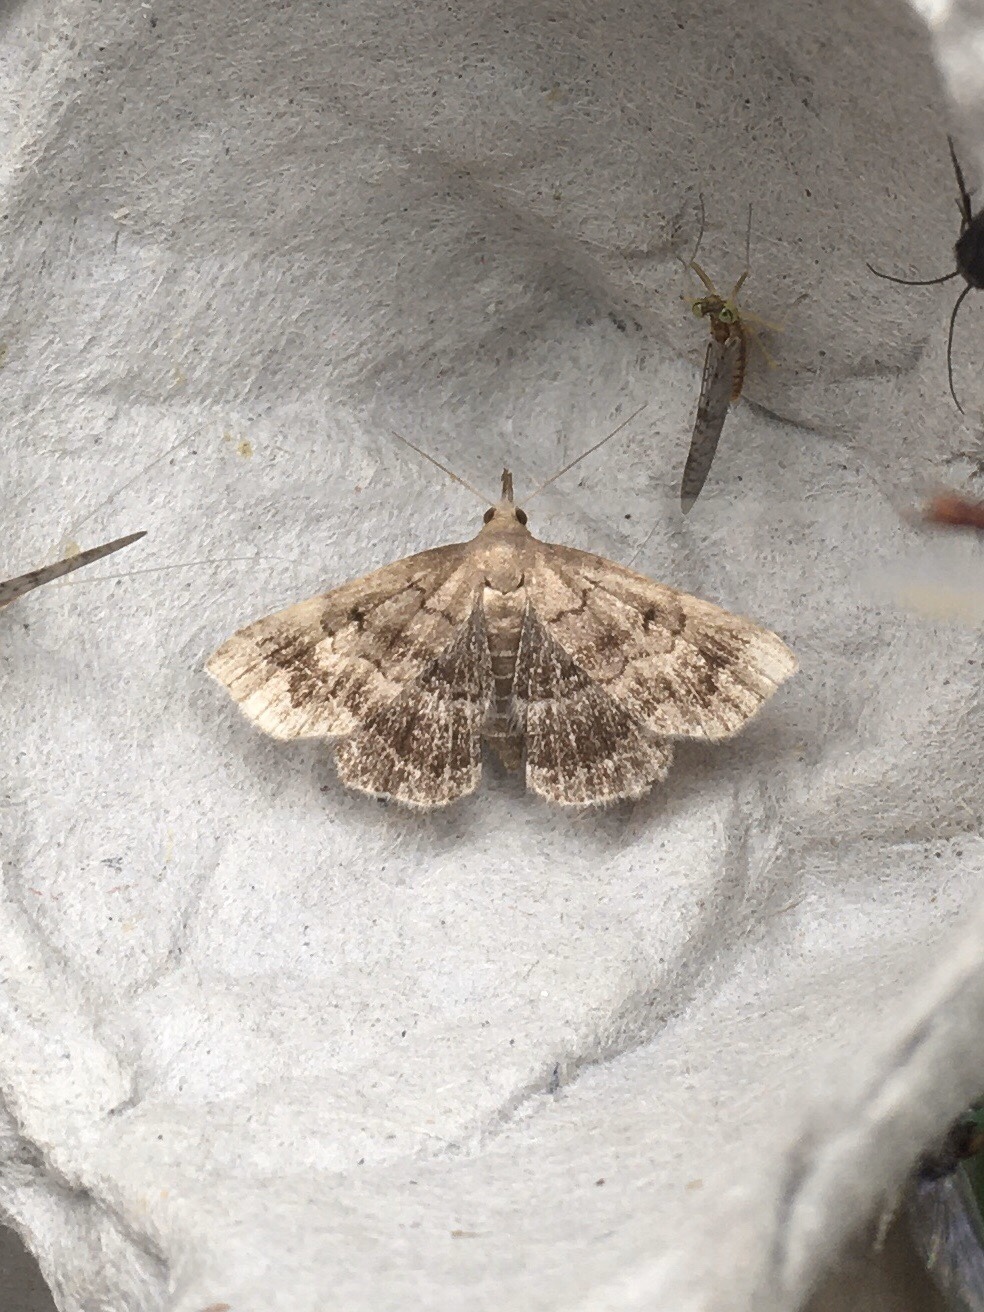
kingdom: Animalia
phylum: Arthropoda
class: Insecta
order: Lepidoptera
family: Erebidae
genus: Phalaenostola
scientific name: Phalaenostola larentioides
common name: Black-banded owlet
